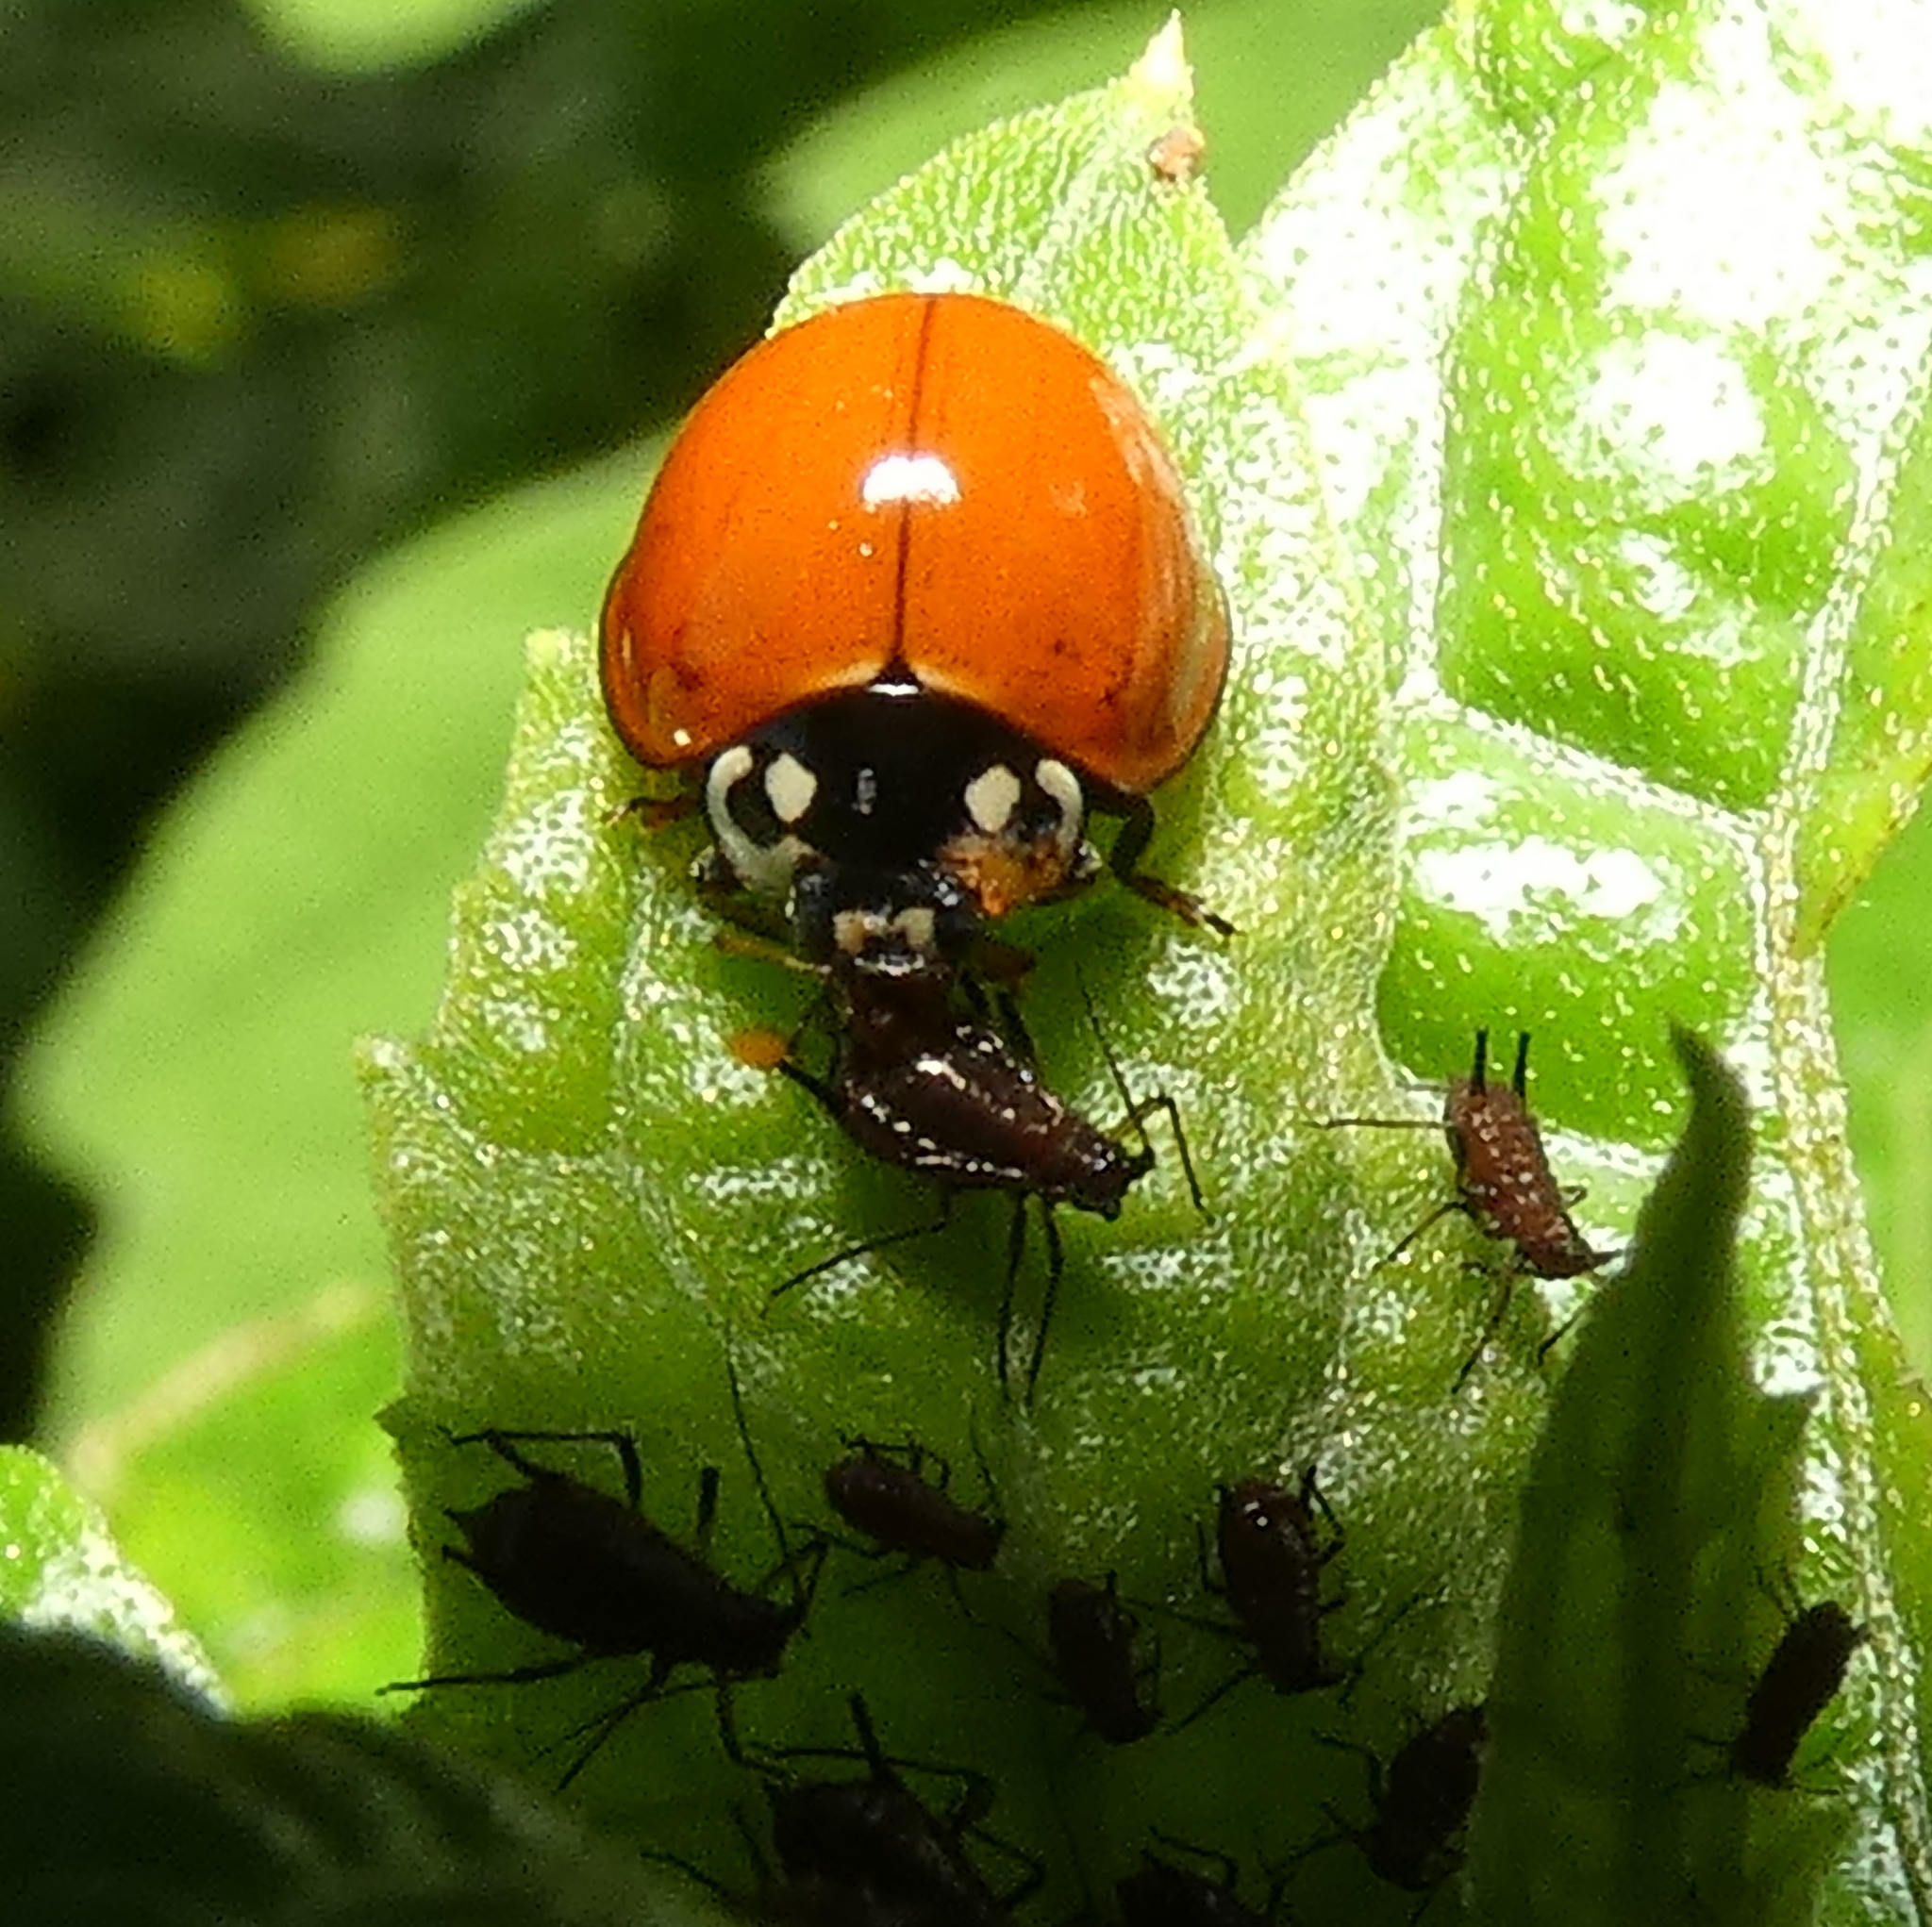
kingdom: Animalia
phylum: Arthropoda
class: Insecta
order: Coleoptera
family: Coccinellidae
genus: Cycloneda
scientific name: Cycloneda sanguinea
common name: Ladybird beetle
